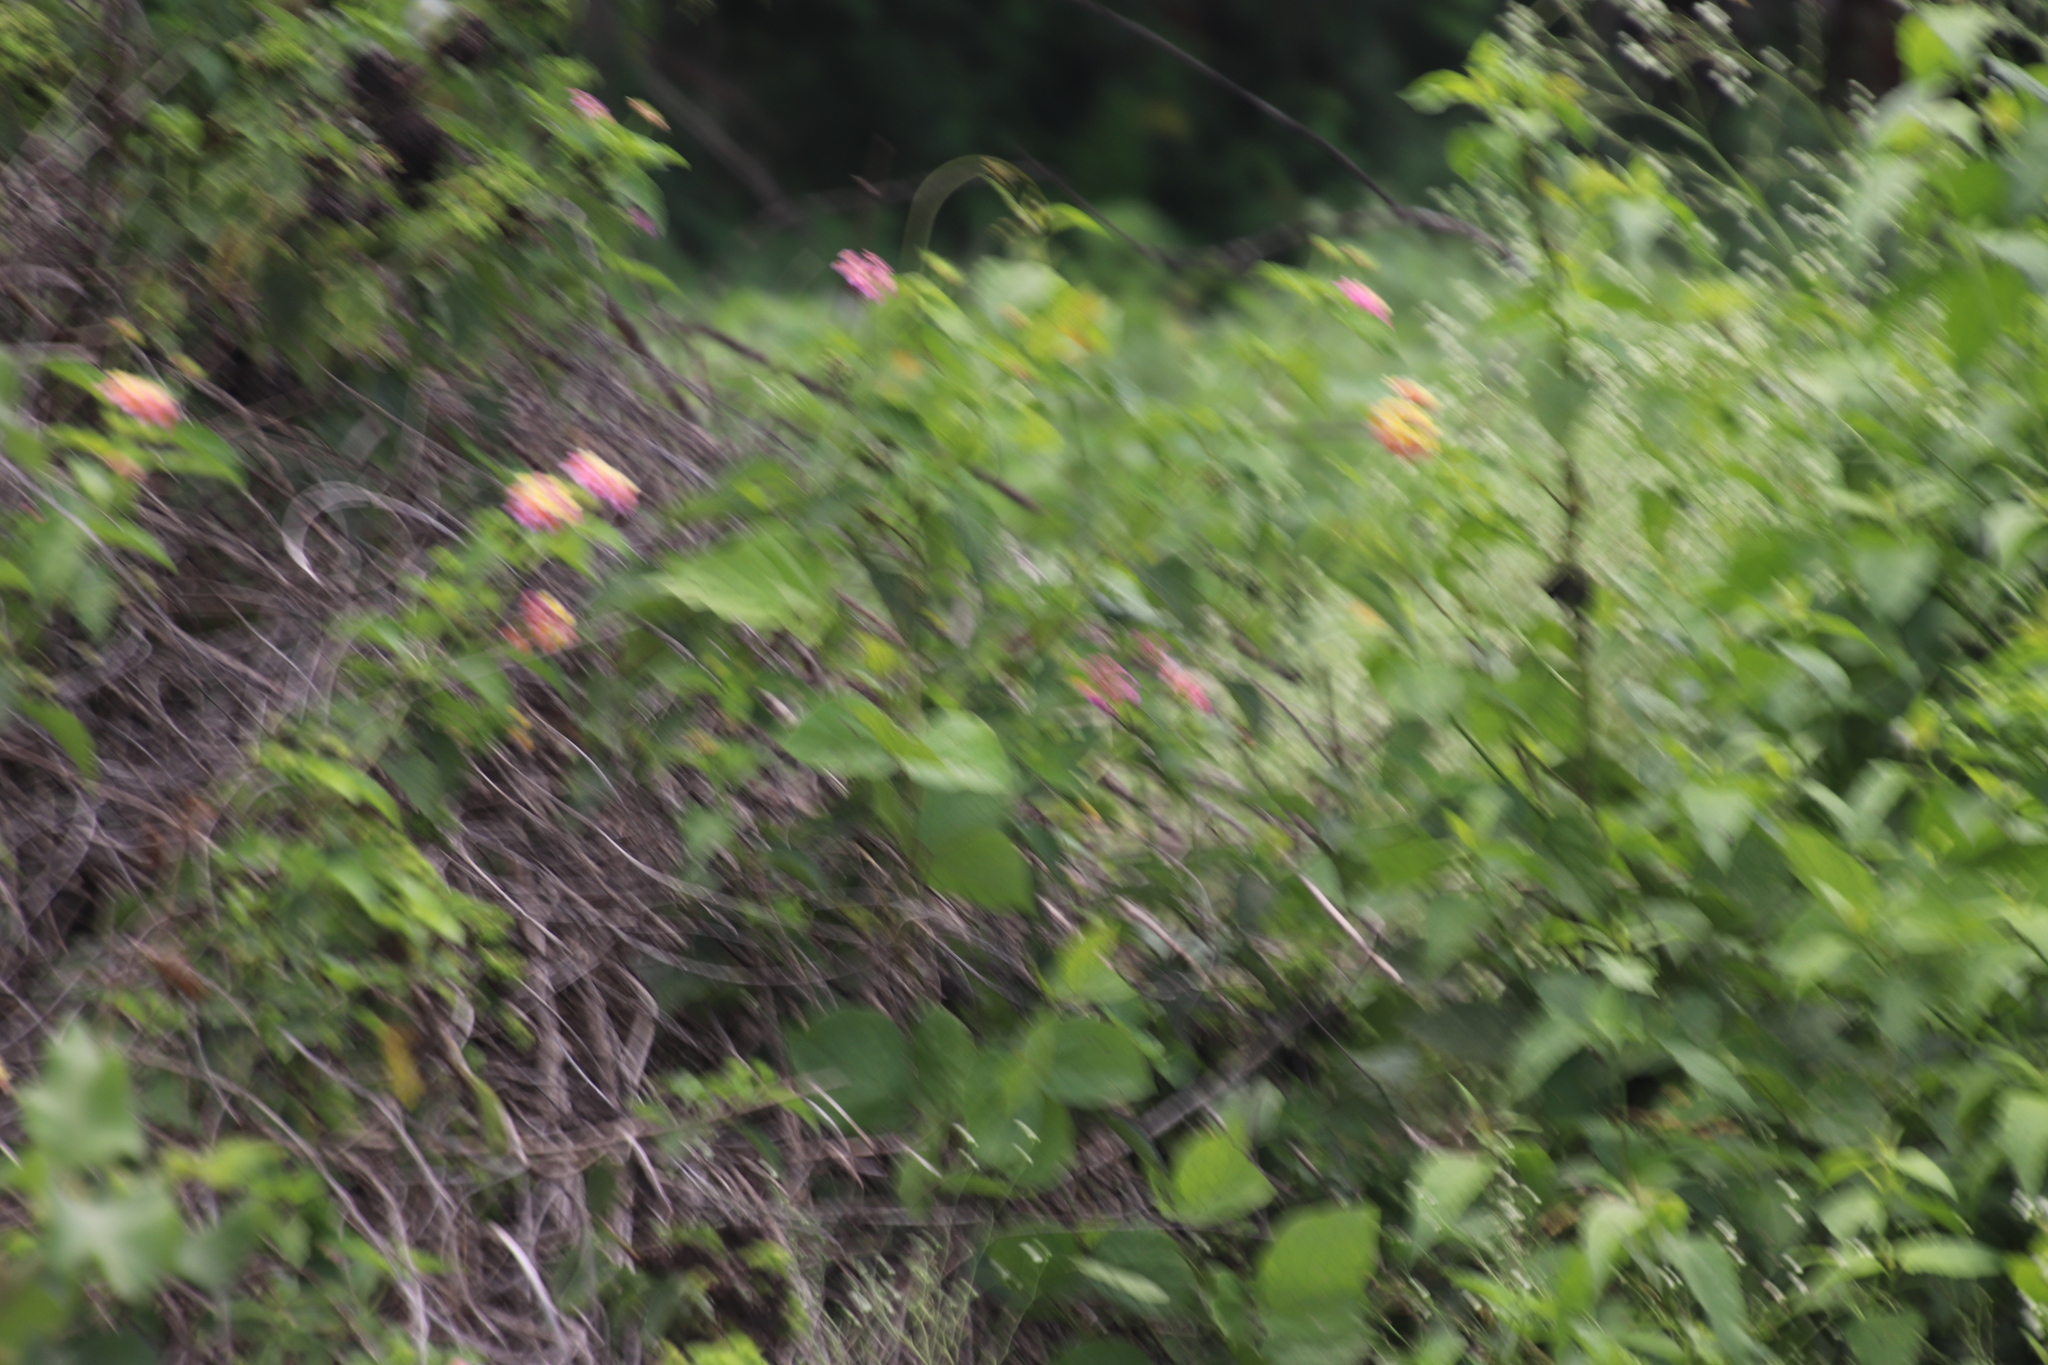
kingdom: Plantae
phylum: Tracheophyta
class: Magnoliopsida
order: Lamiales
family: Verbenaceae
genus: Lantana
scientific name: Lantana camara
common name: Lantana
